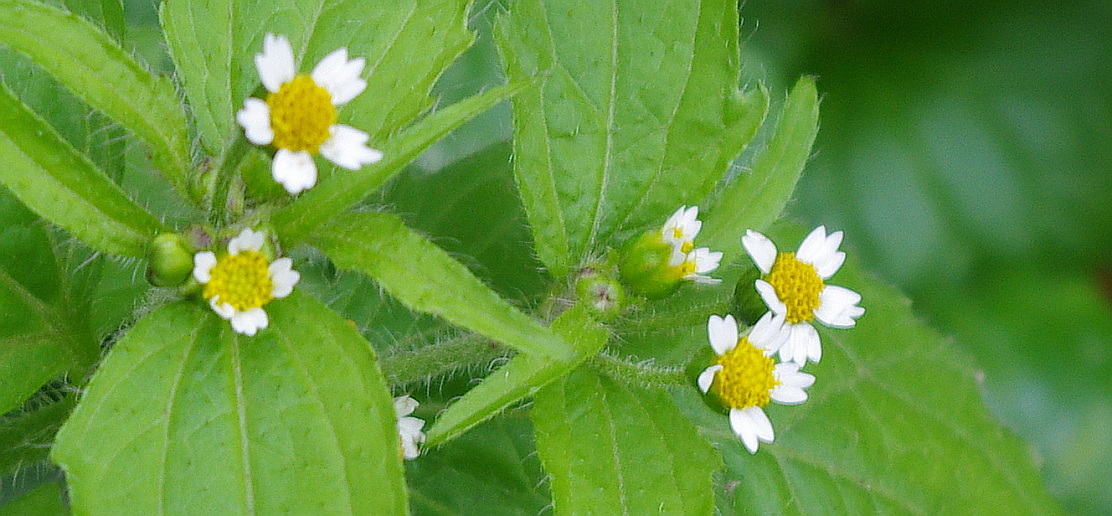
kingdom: Plantae
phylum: Tracheophyta
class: Magnoliopsida
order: Asterales
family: Asteraceae
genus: Galinsoga
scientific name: Galinsoga quadriradiata
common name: Shaggy soldier
